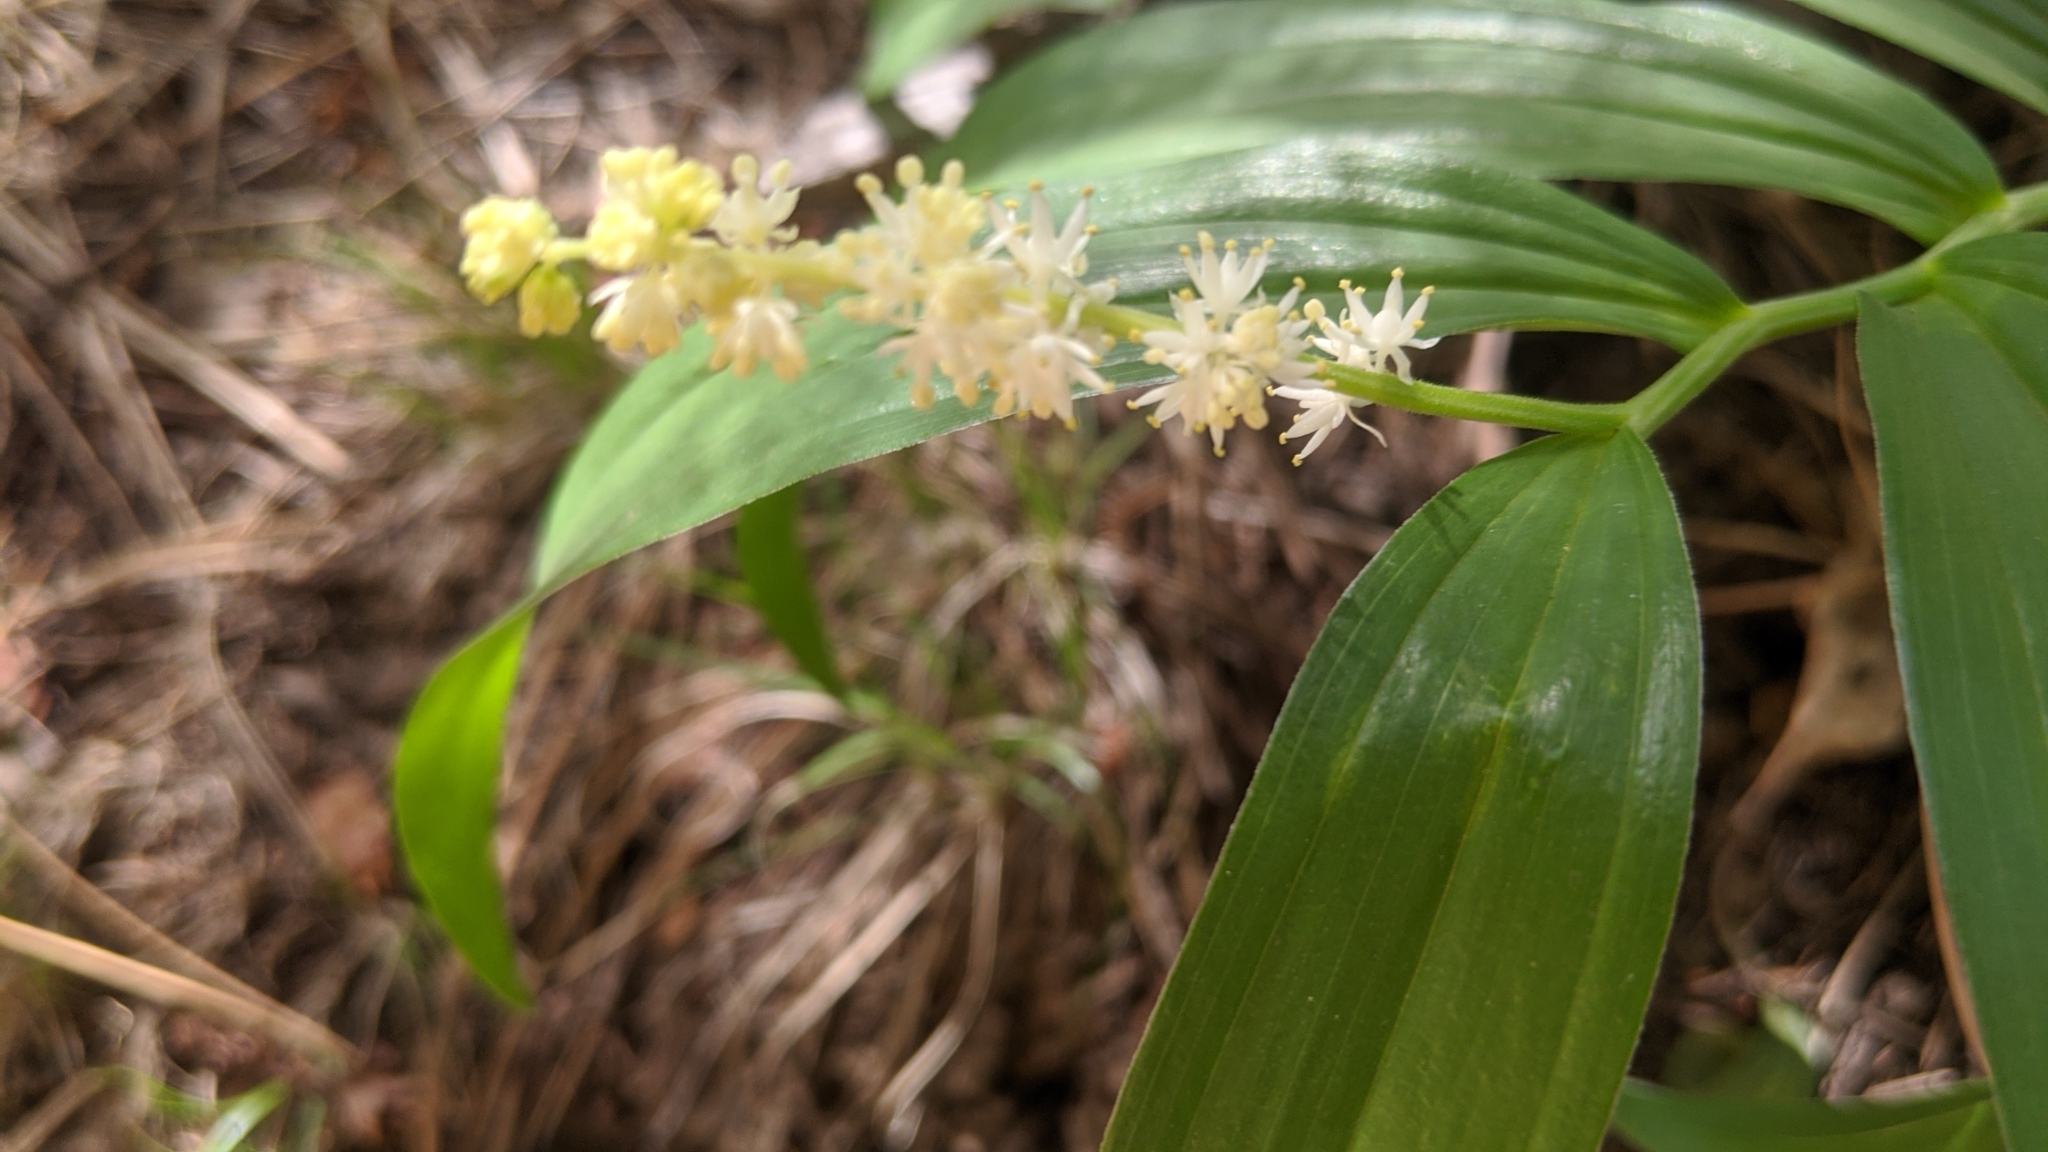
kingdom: Plantae
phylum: Tracheophyta
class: Liliopsida
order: Asparagales
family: Asparagaceae
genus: Maianthemum
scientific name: Maianthemum racemosum
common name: False spikenard
